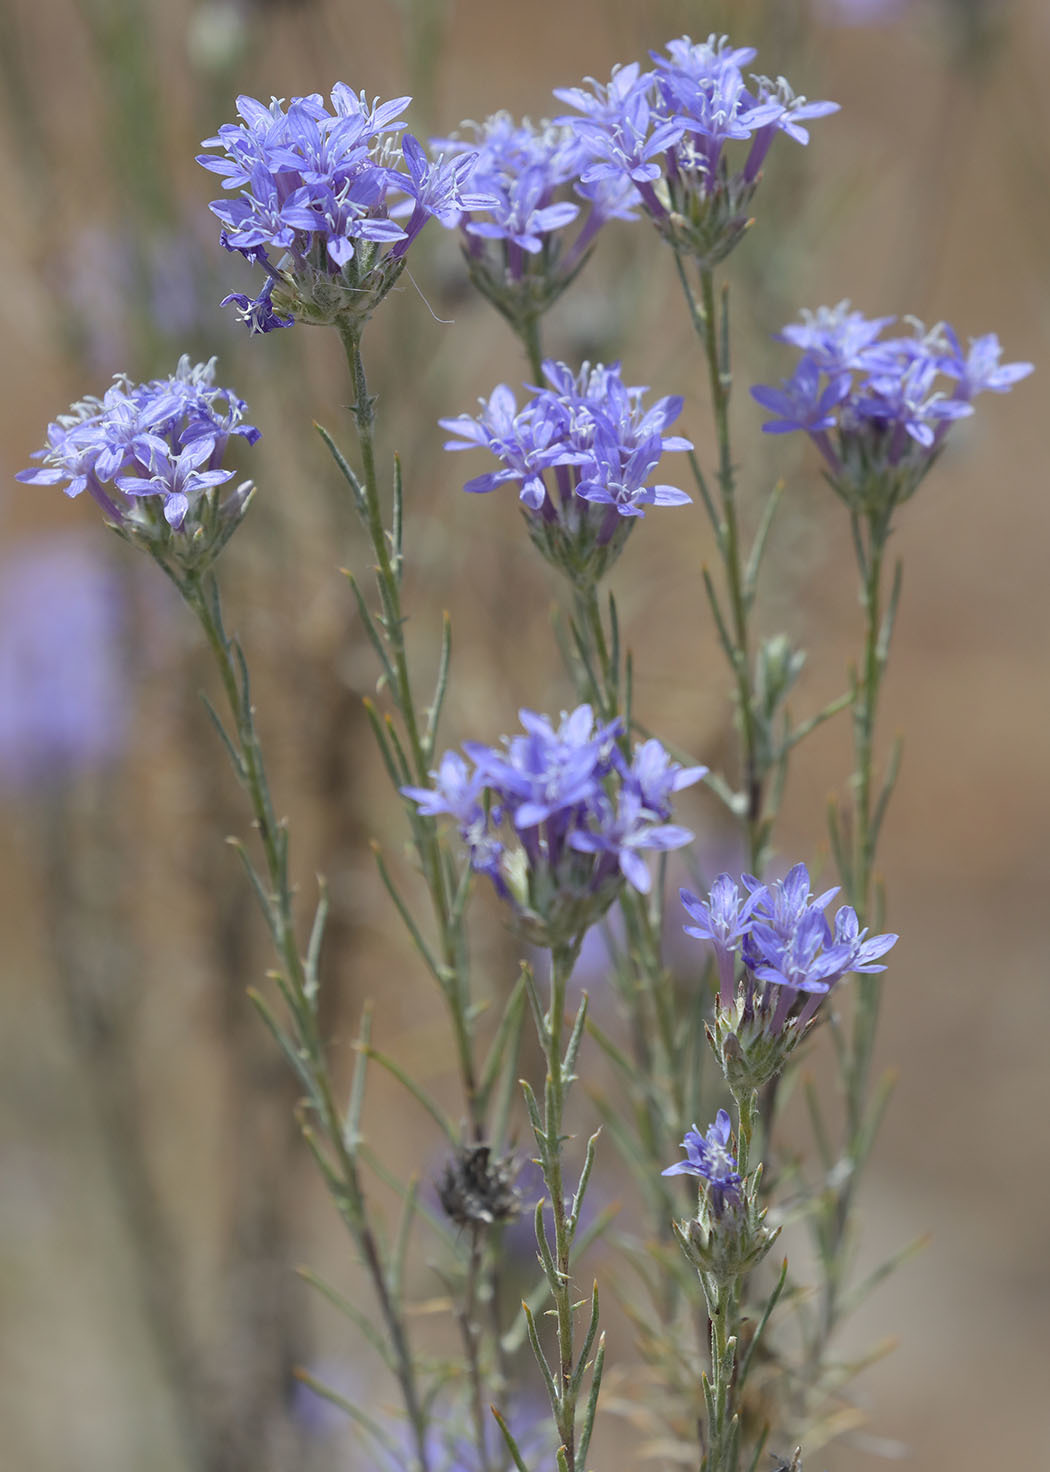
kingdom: Plantae
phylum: Tracheophyta
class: Magnoliopsida
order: Ericales
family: Polemoniaceae
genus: Eriastrum
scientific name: Eriastrum densifolium
